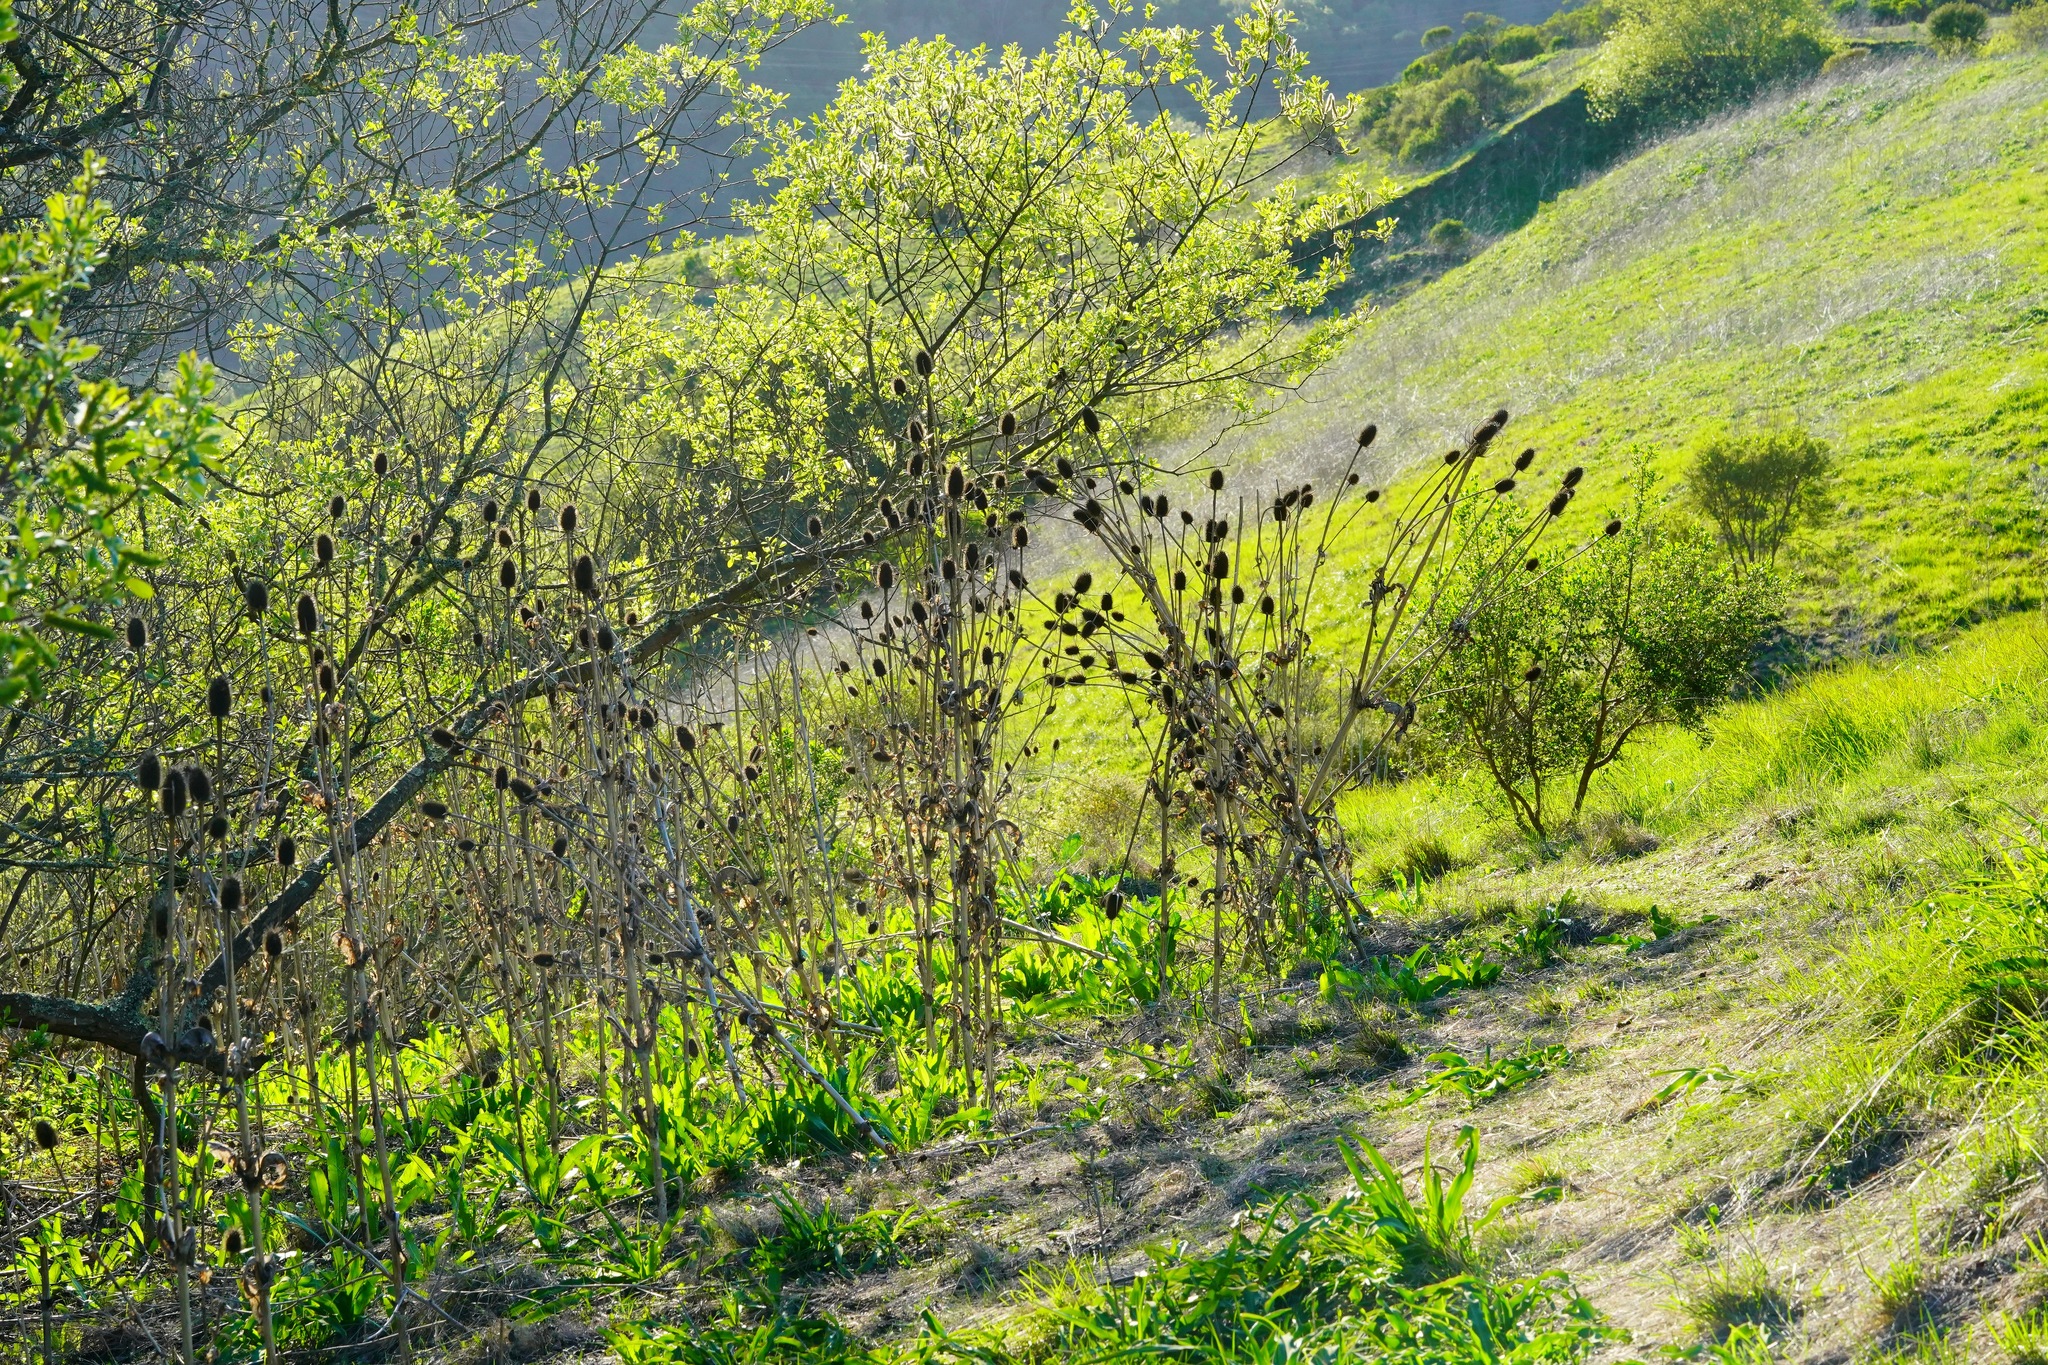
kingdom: Plantae
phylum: Tracheophyta
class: Magnoliopsida
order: Dipsacales
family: Caprifoliaceae
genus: Dipsacus
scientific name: Dipsacus sativus
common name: Fuller's teasel
